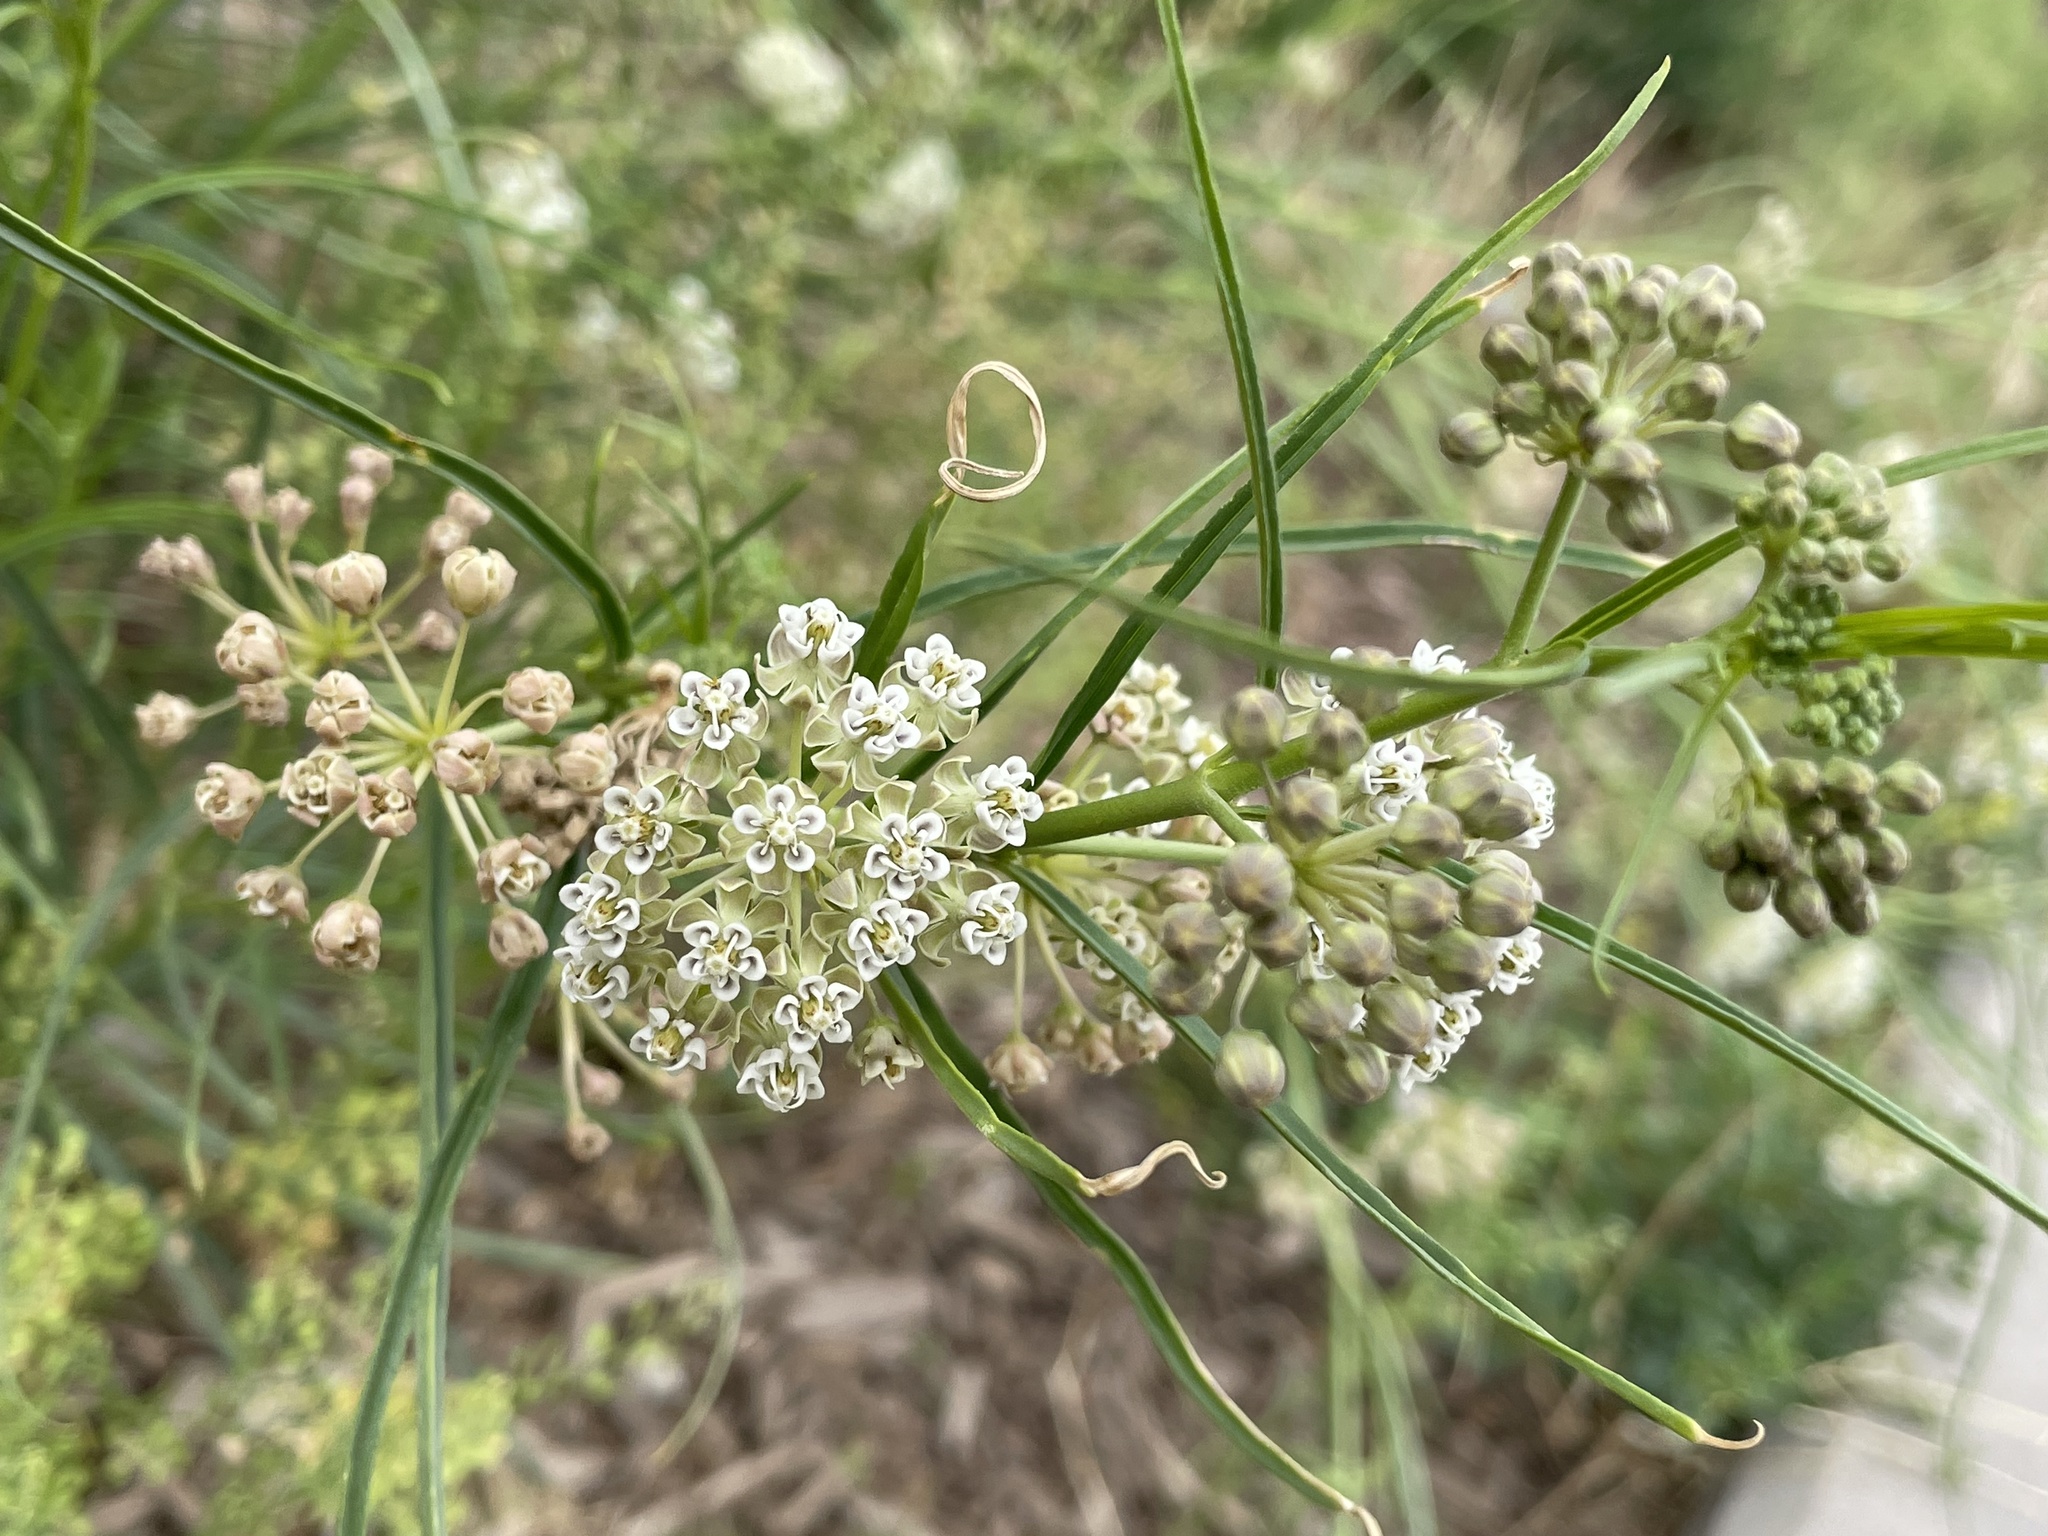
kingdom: Plantae
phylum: Tracheophyta
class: Magnoliopsida
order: Gentianales
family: Apocynaceae
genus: Asclepias
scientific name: Asclepias subverticillata
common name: Horsetail milkweed
